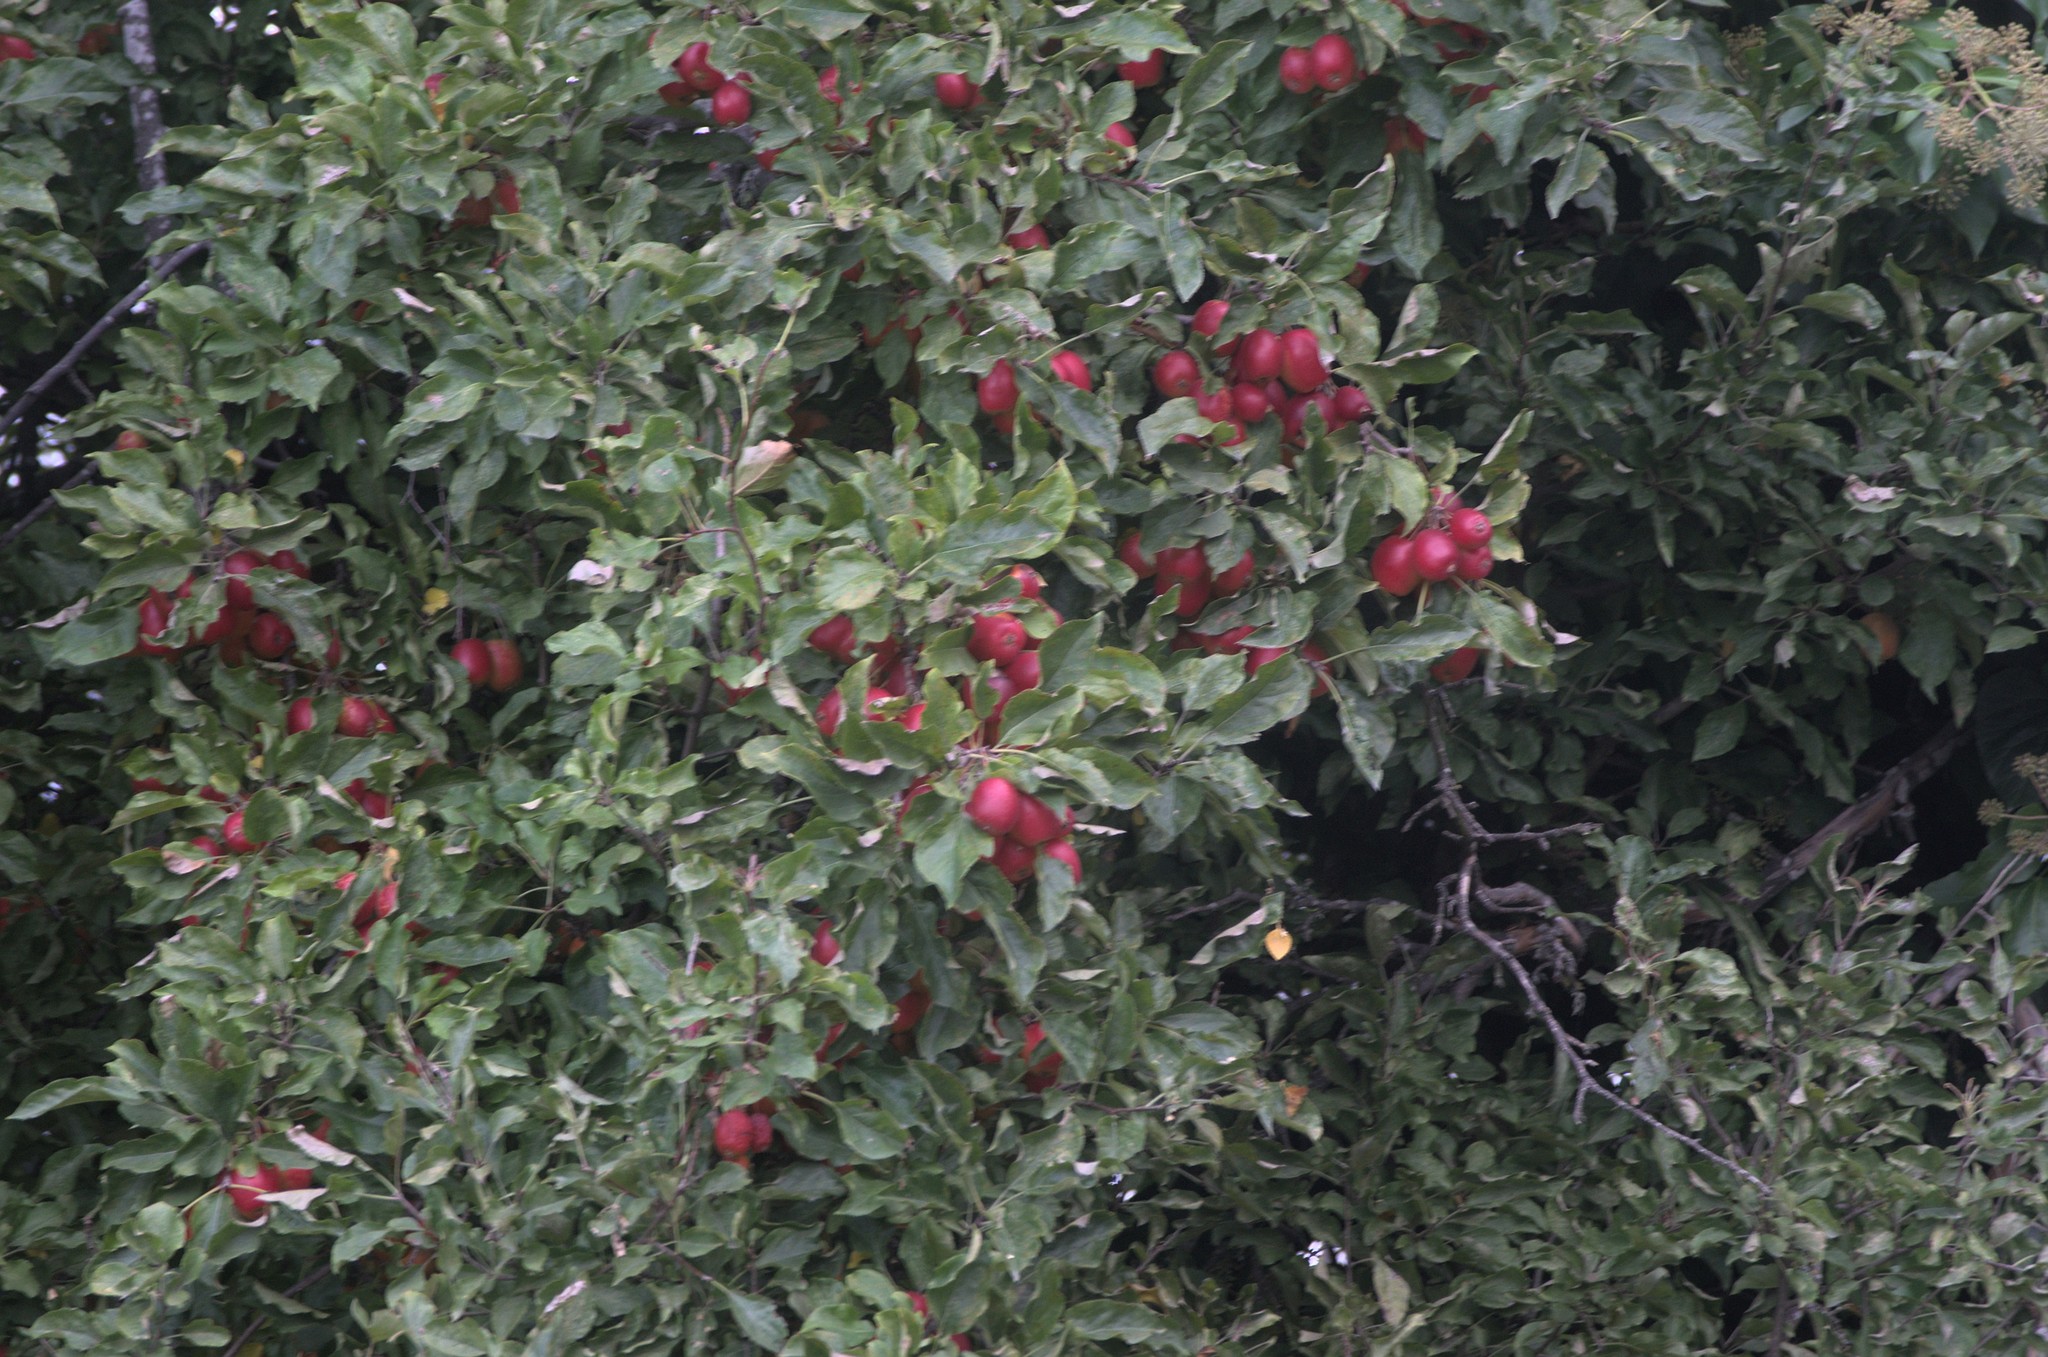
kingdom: Plantae
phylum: Tracheophyta
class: Magnoliopsida
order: Rosales
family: Rosaceae
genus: Malus
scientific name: Malus domestica
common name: Apple
